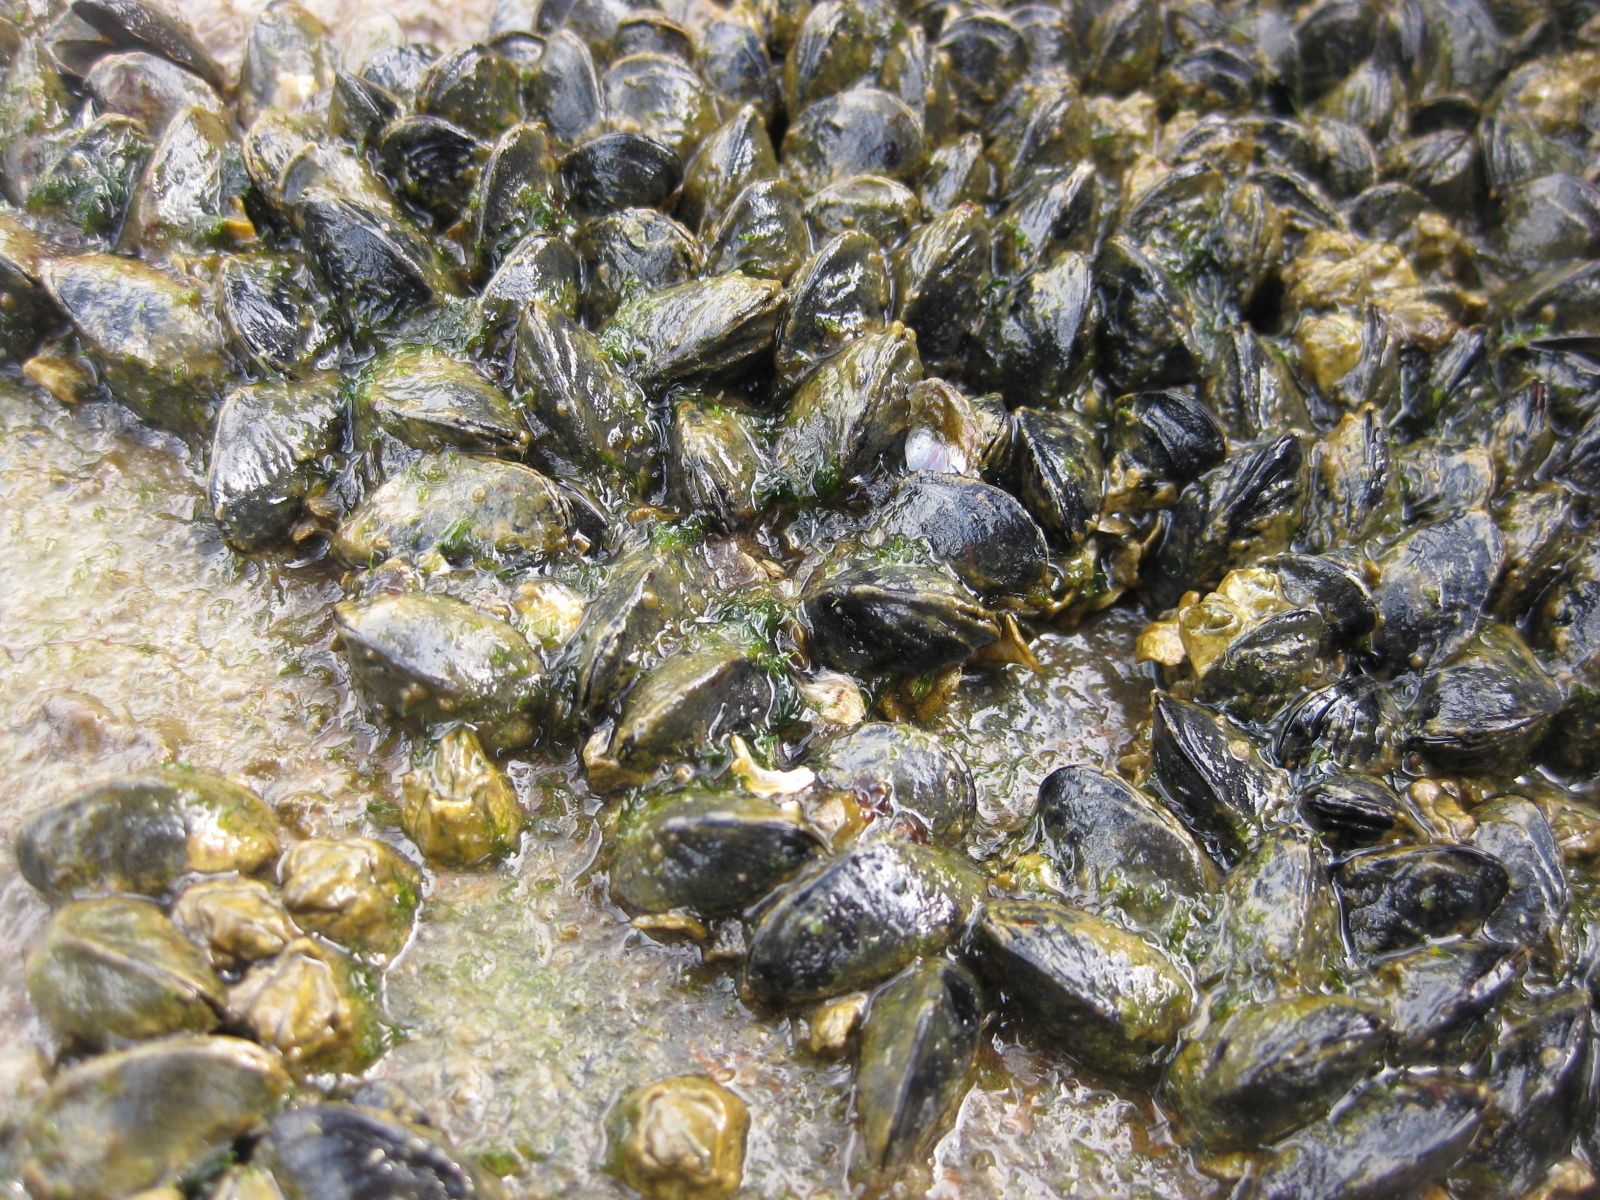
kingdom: Animalia
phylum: Mollusca
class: Bivalvia
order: Mytilida
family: Mytilidae
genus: Xenostrobus
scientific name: Xenostrobus neozelanicus
